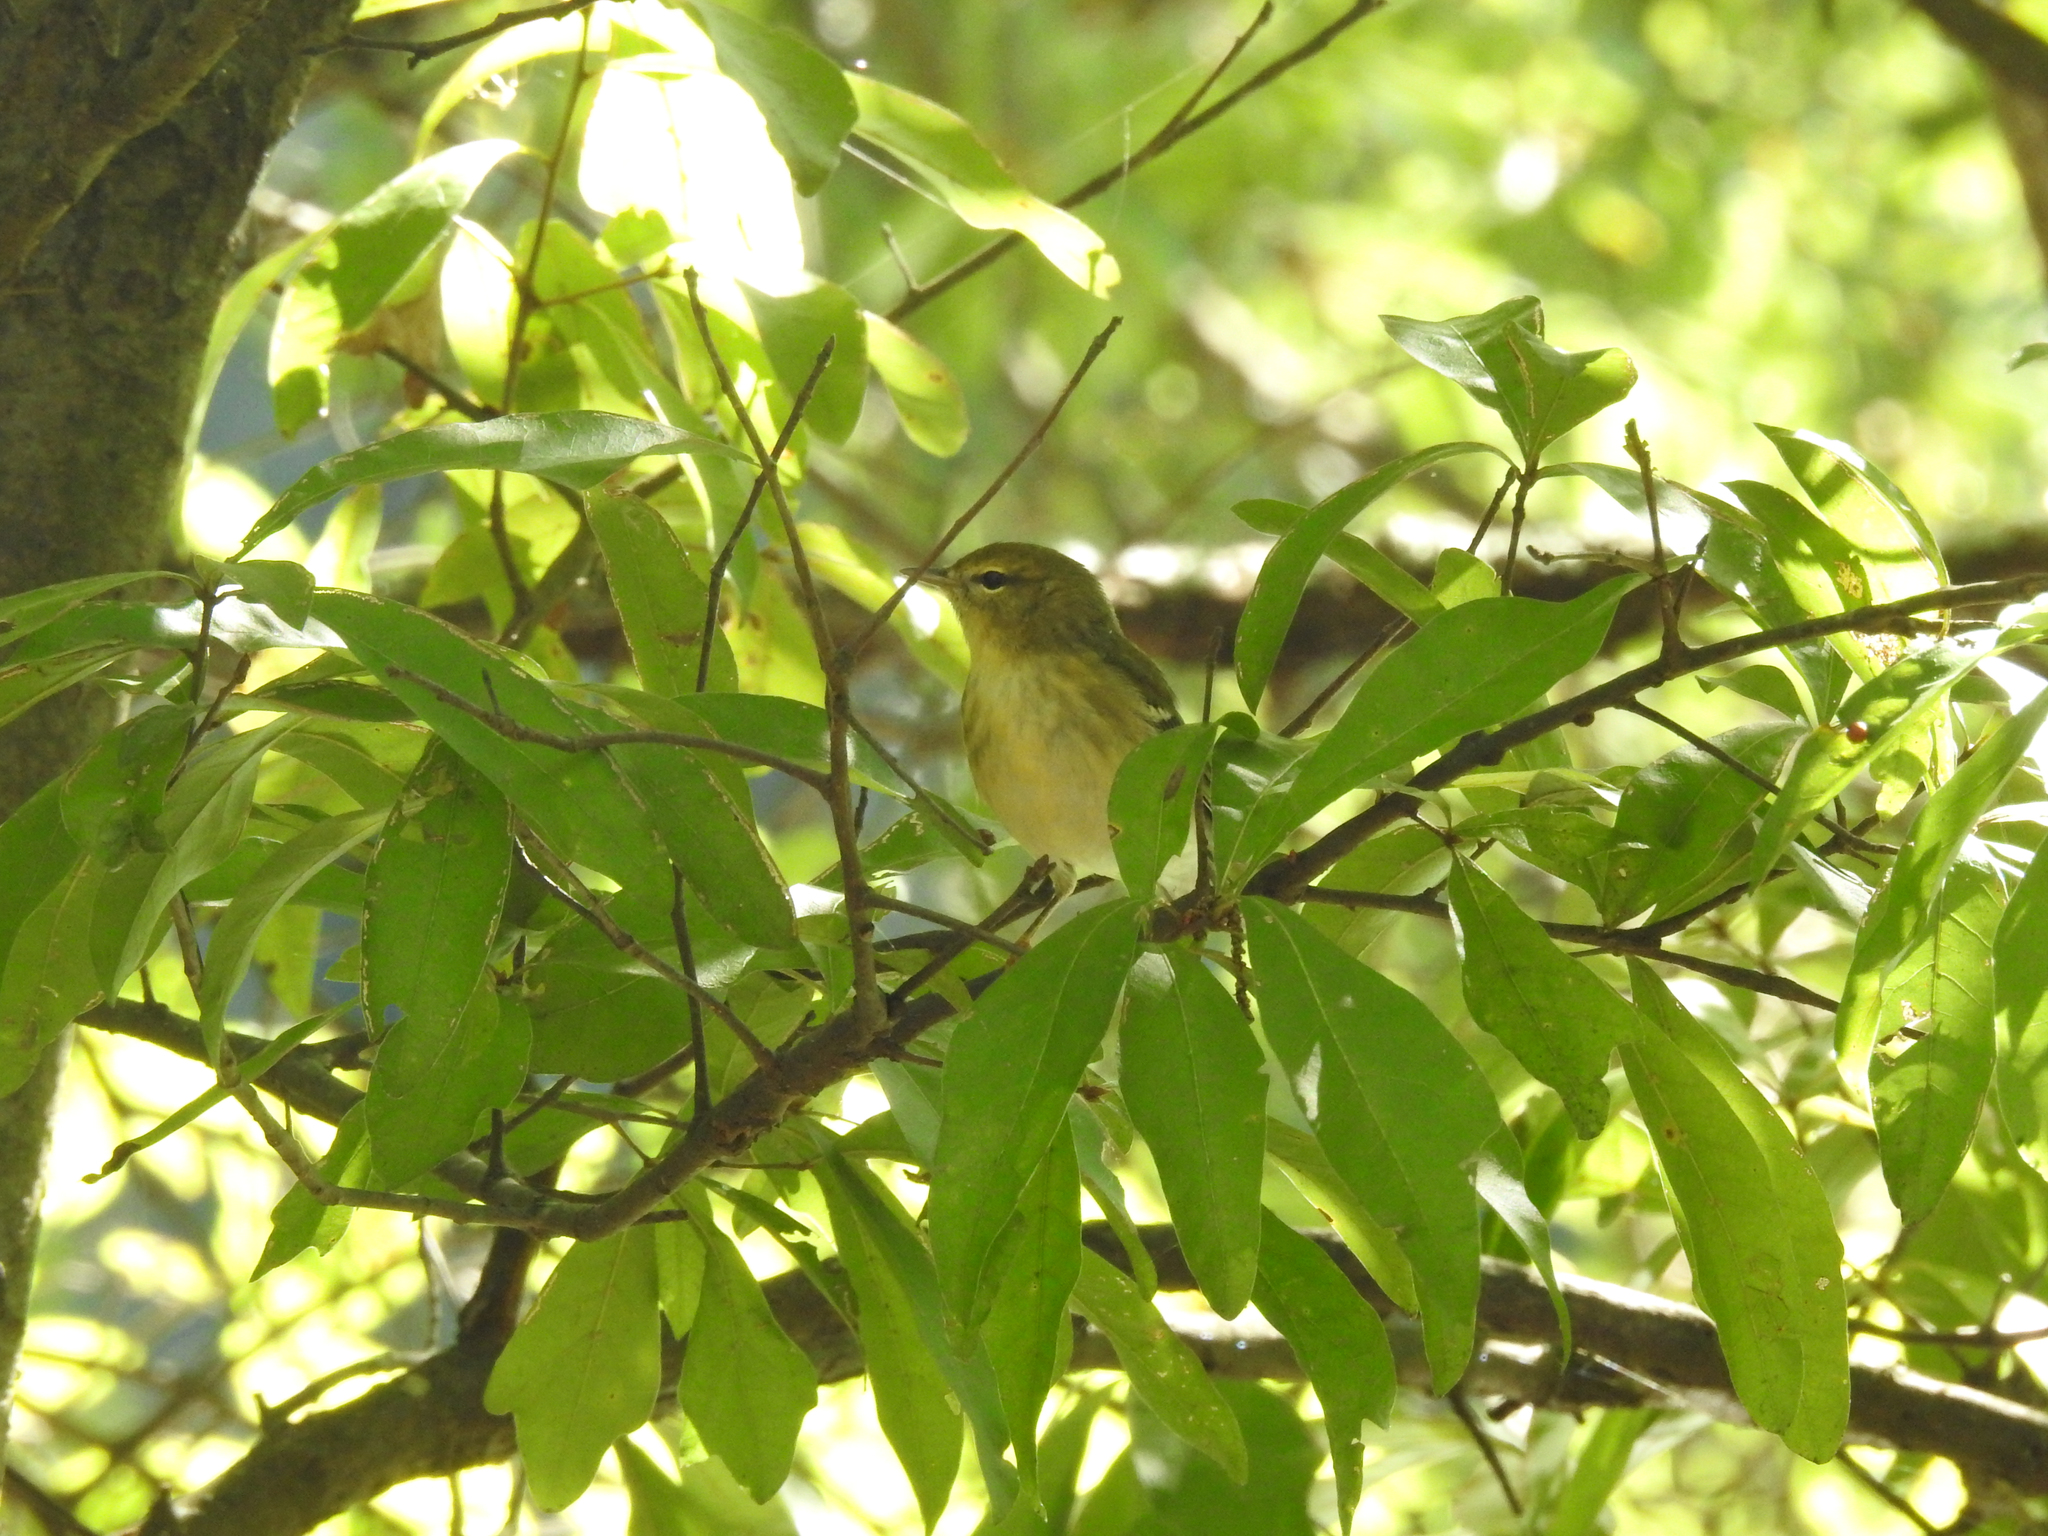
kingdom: Animalia
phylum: Chordata
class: Aves
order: Passeriformes
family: Parulidae
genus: Setophaga
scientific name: Setophaga striata
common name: Blackpoll warbler
